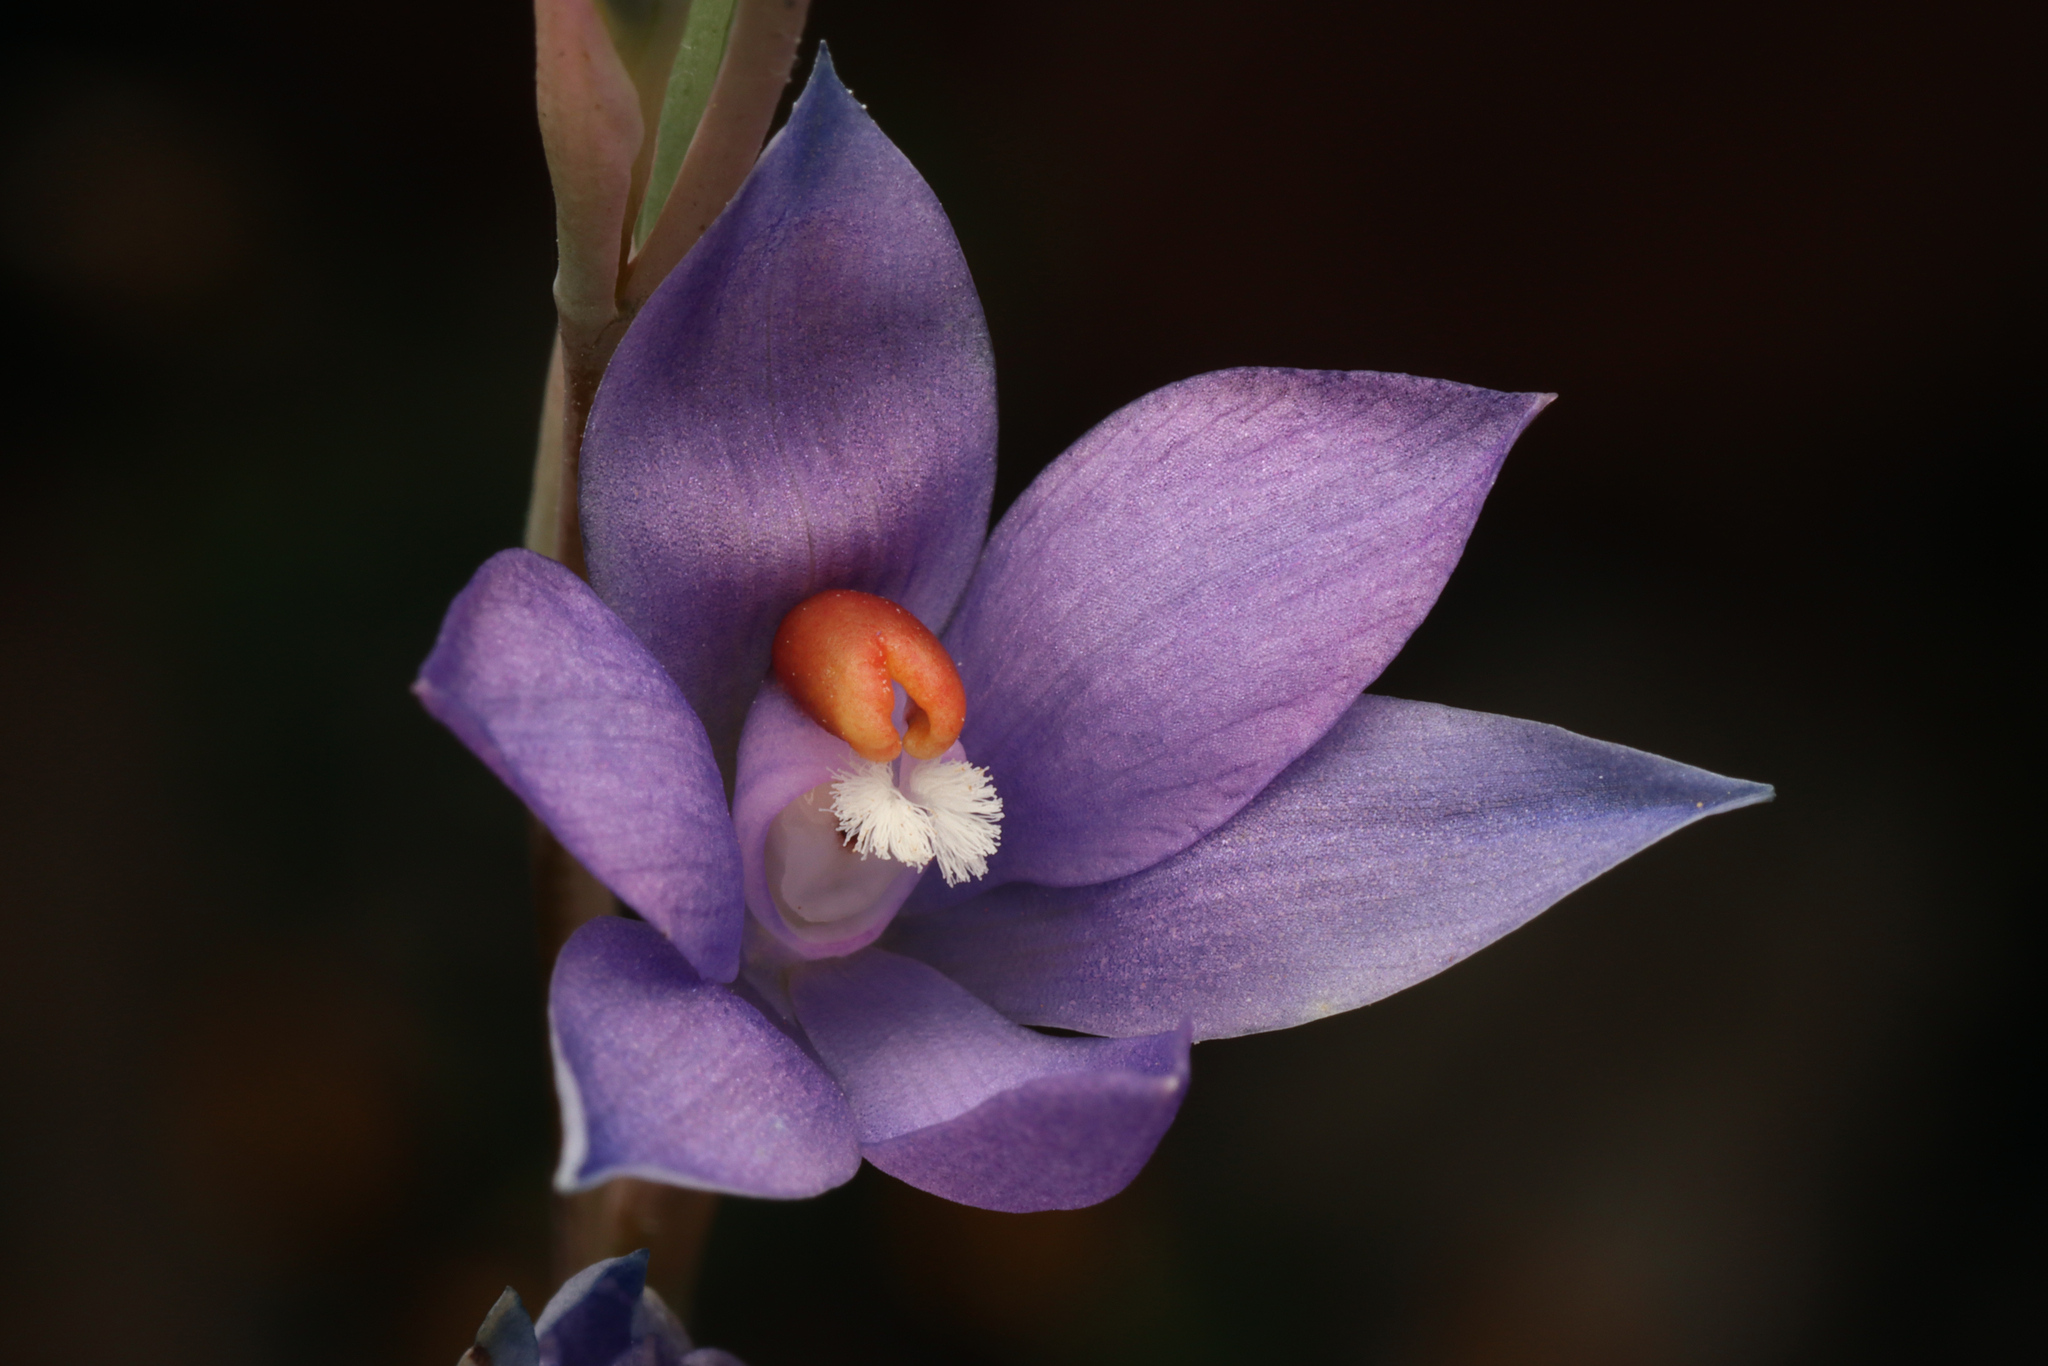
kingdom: Plantae
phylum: Tracheophyta
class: Liliopsida
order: Asparagales
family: Orchidaceae
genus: Thelymitra
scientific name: Thelymitra brevifolia
